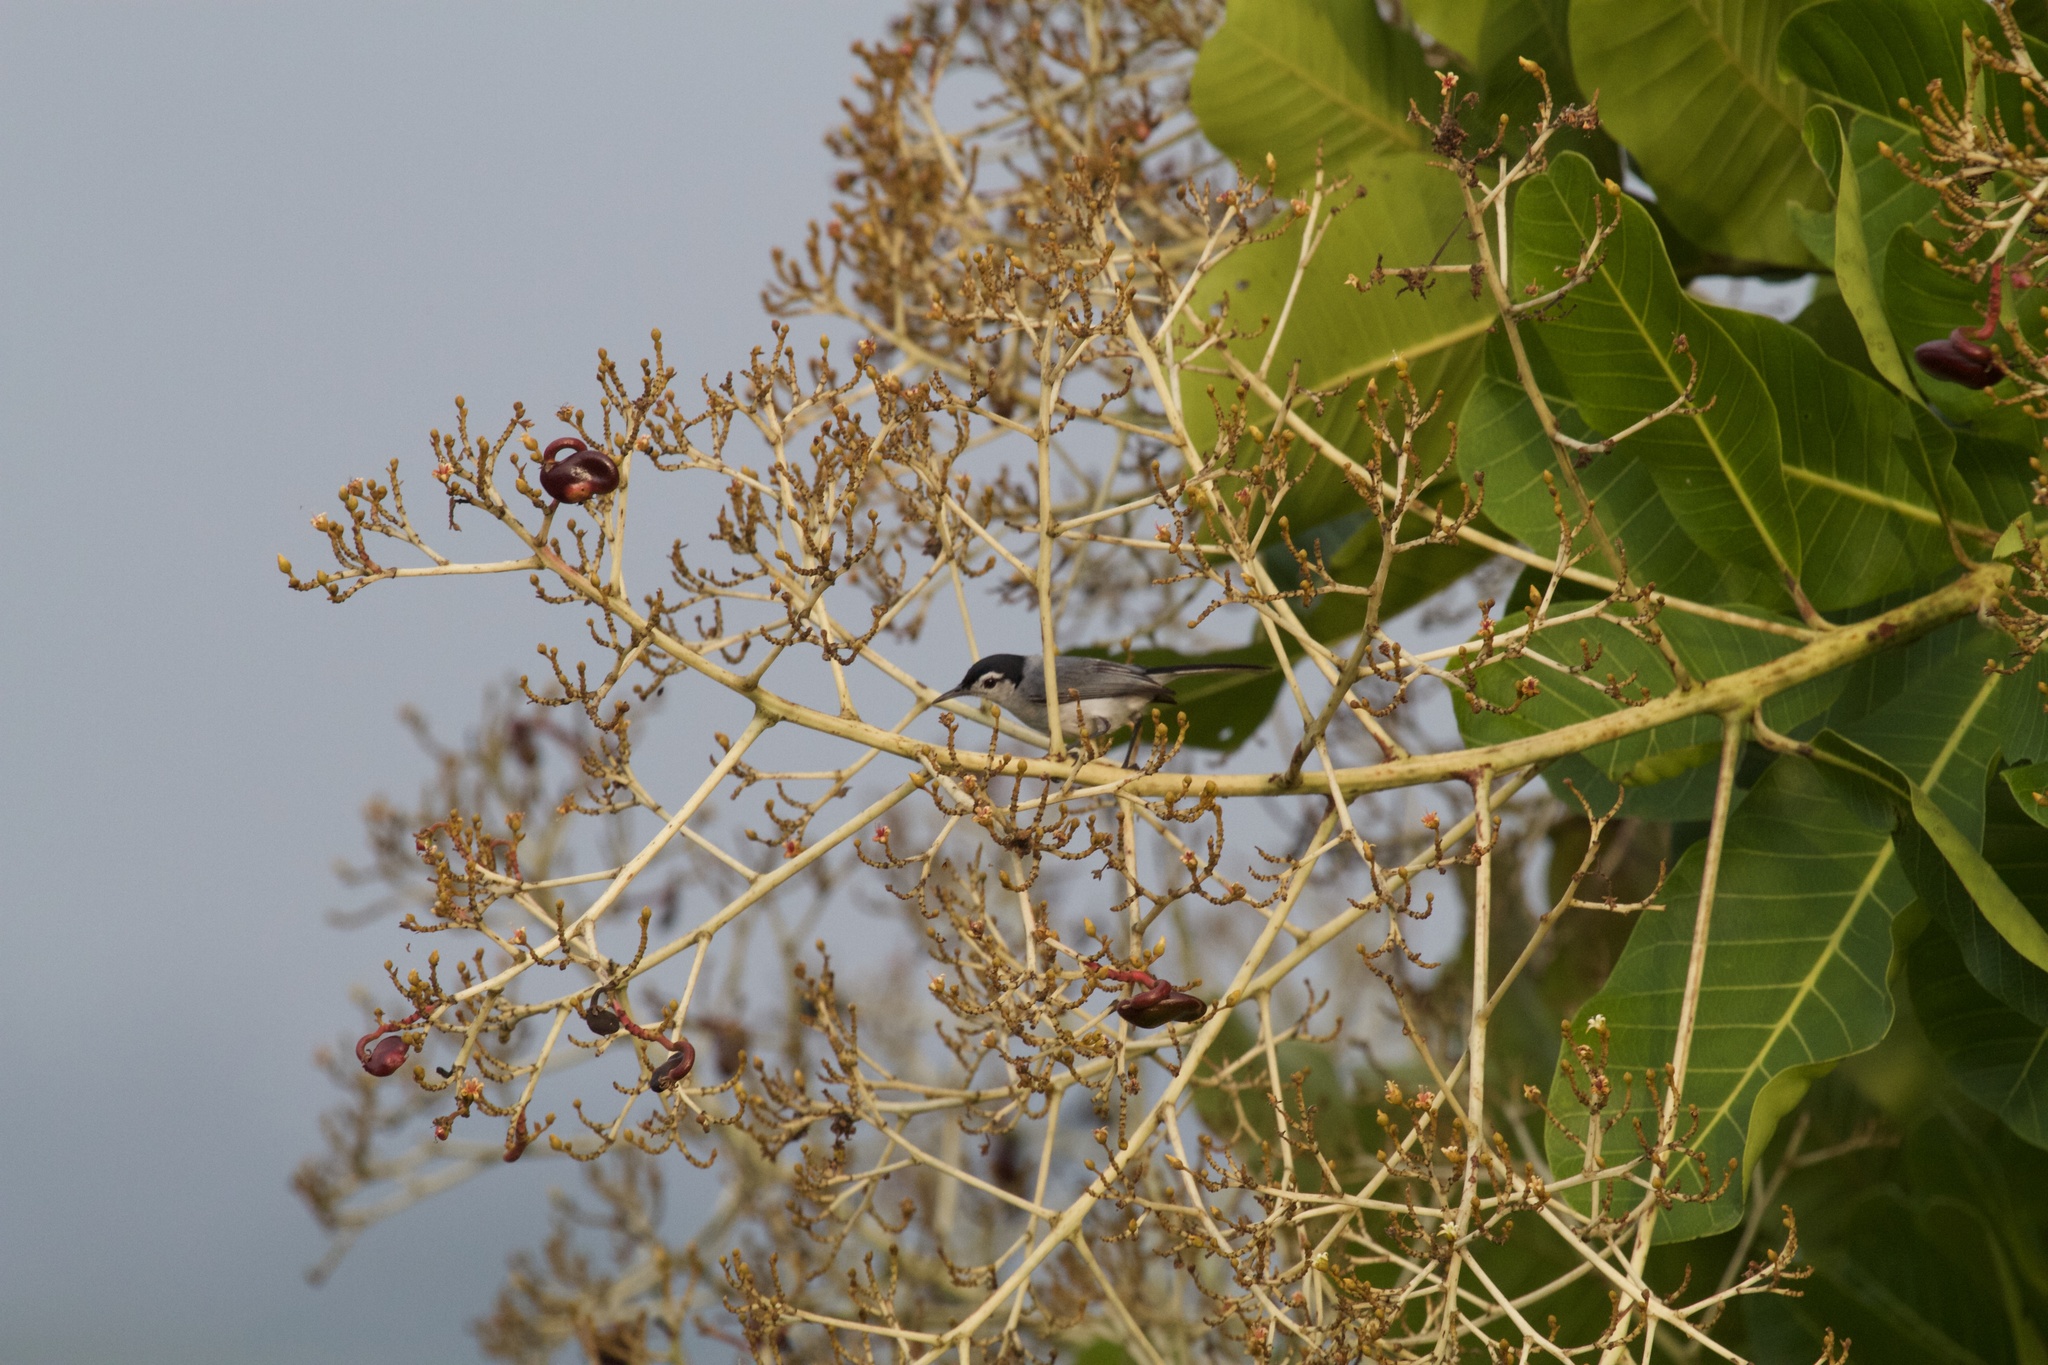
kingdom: Animalia
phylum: Chordata
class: Aves
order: Passeriformes
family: Polioptilidae
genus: Polioptila
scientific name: Polioptila plumbea
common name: Tropical gnatcatcher
